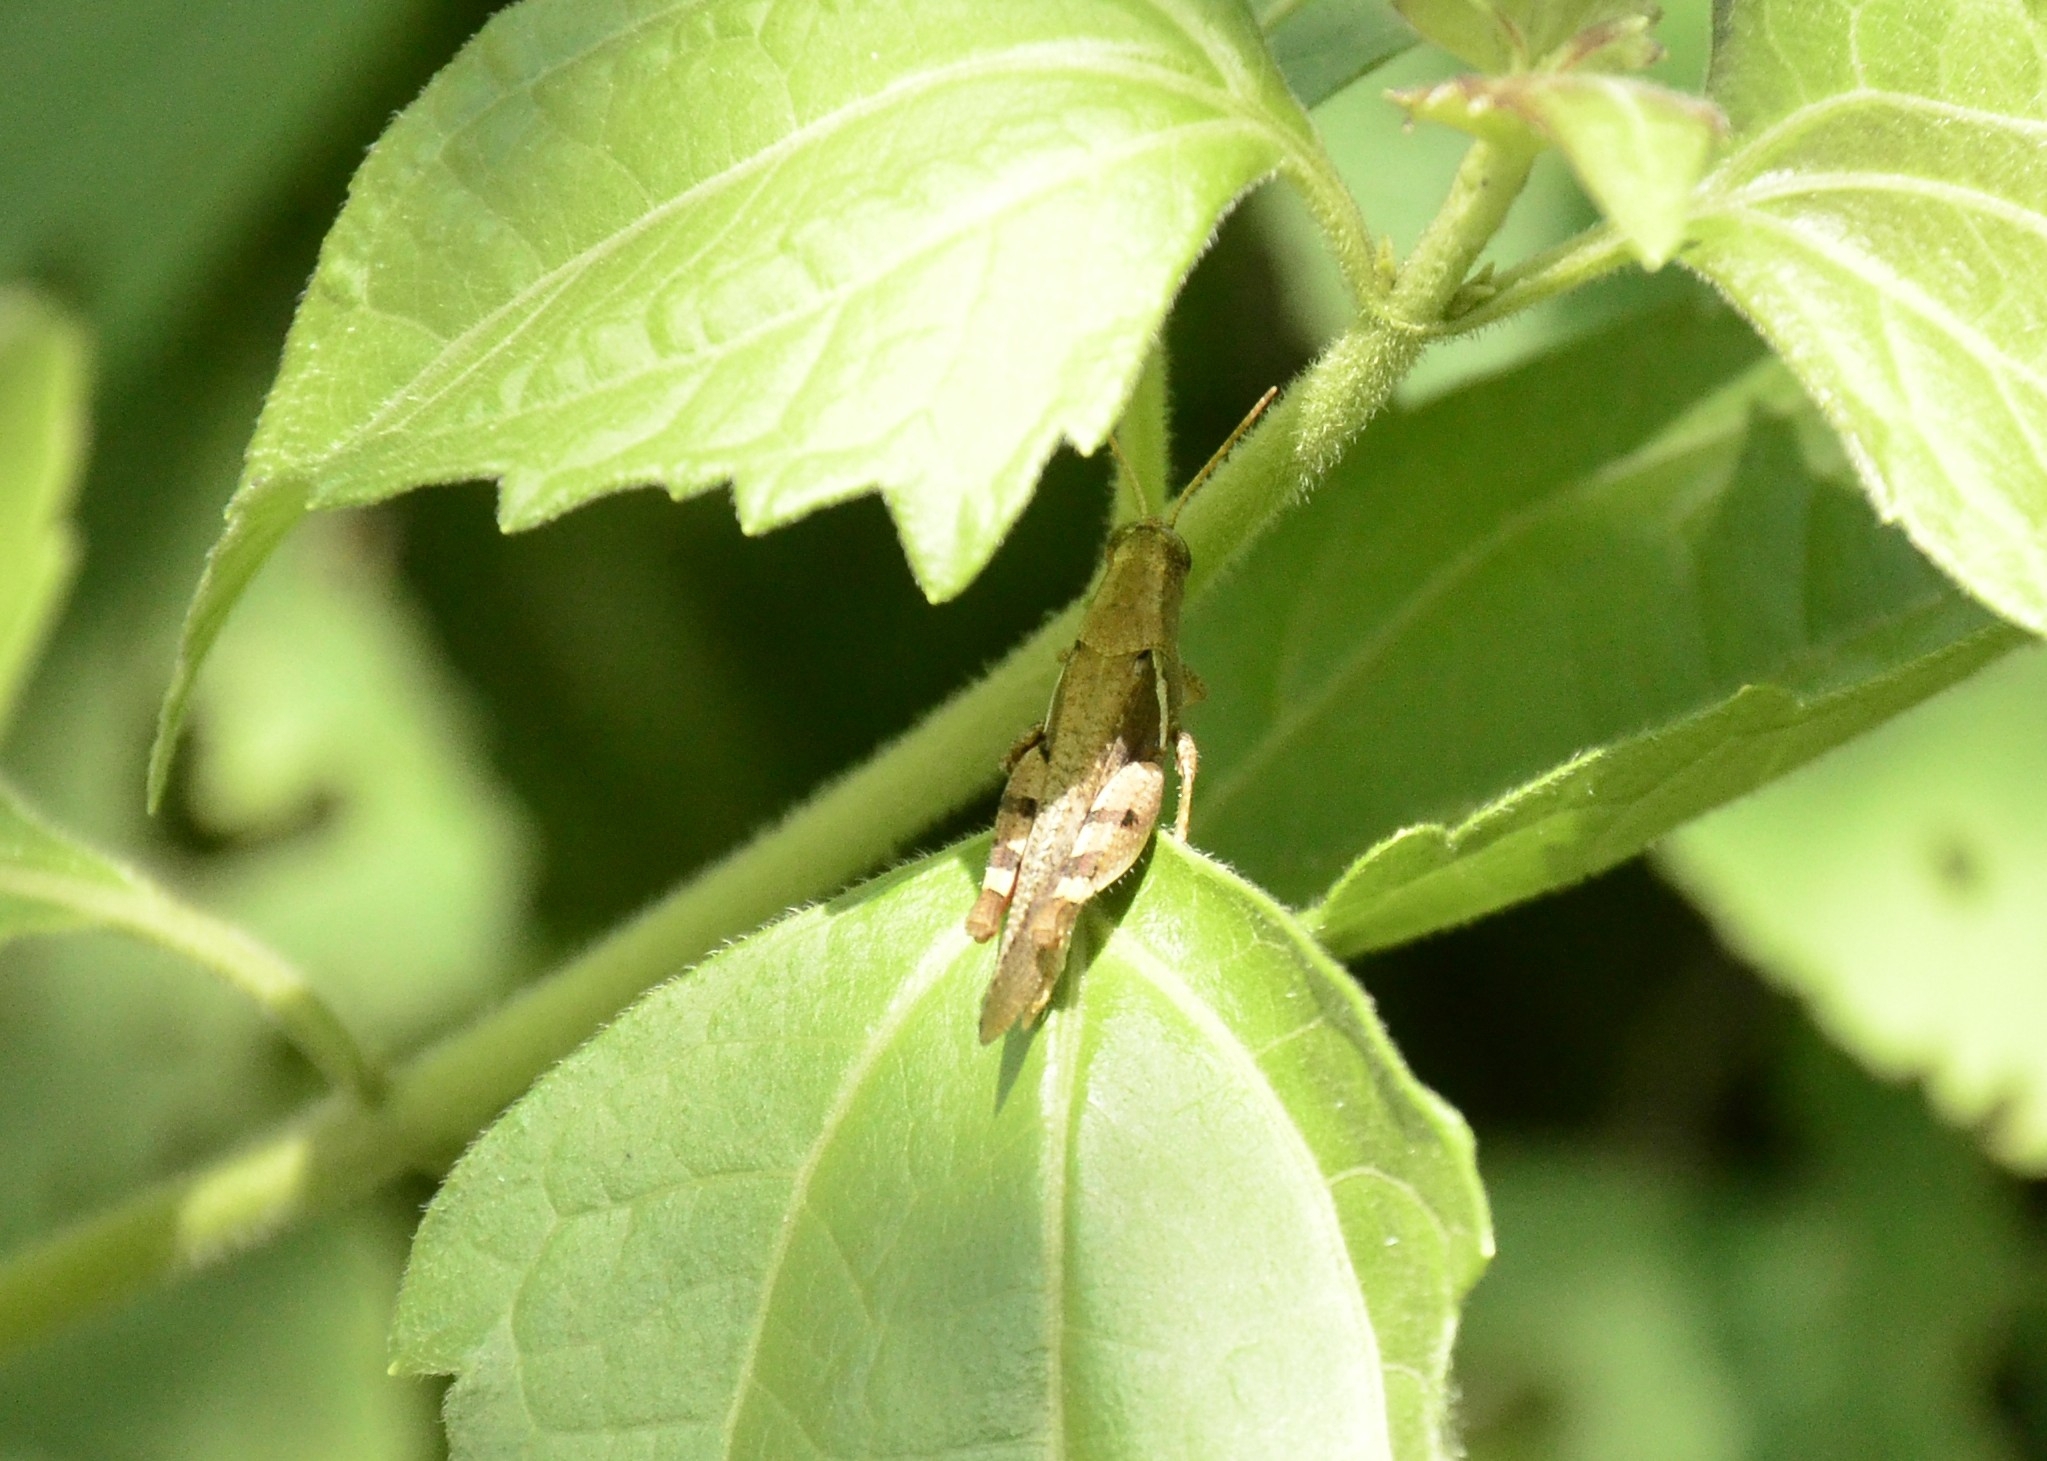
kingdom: Animalia
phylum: Arthropoda
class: Insecta
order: Orthoptera
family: Acrididae
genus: Diabolocatantops
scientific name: Diabolocatantops innotabilis
